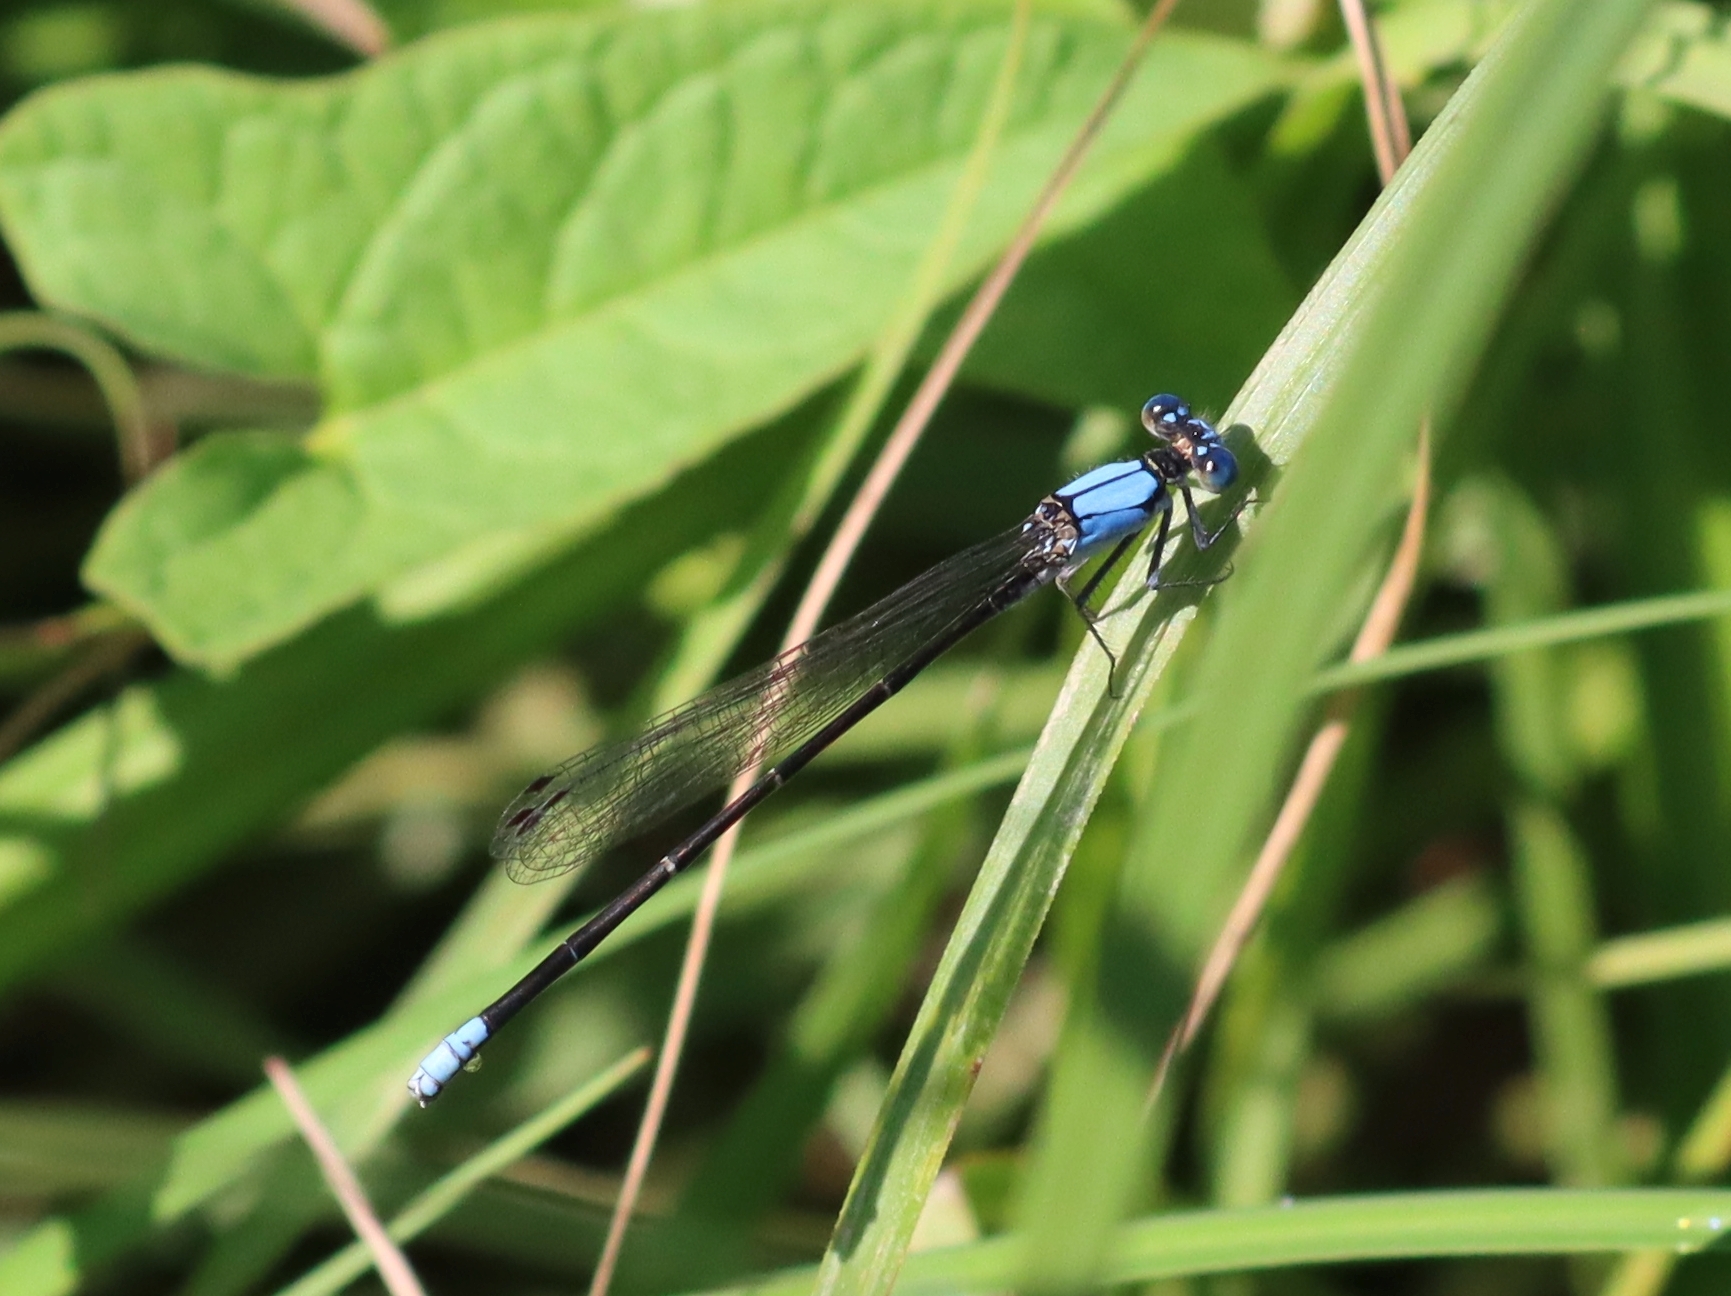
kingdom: Animalia
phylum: Arthropoda
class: Insecta
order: Odonata
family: Coenagrionidae
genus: Argia
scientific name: Argia apicalis
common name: Blue-fronted dancer
